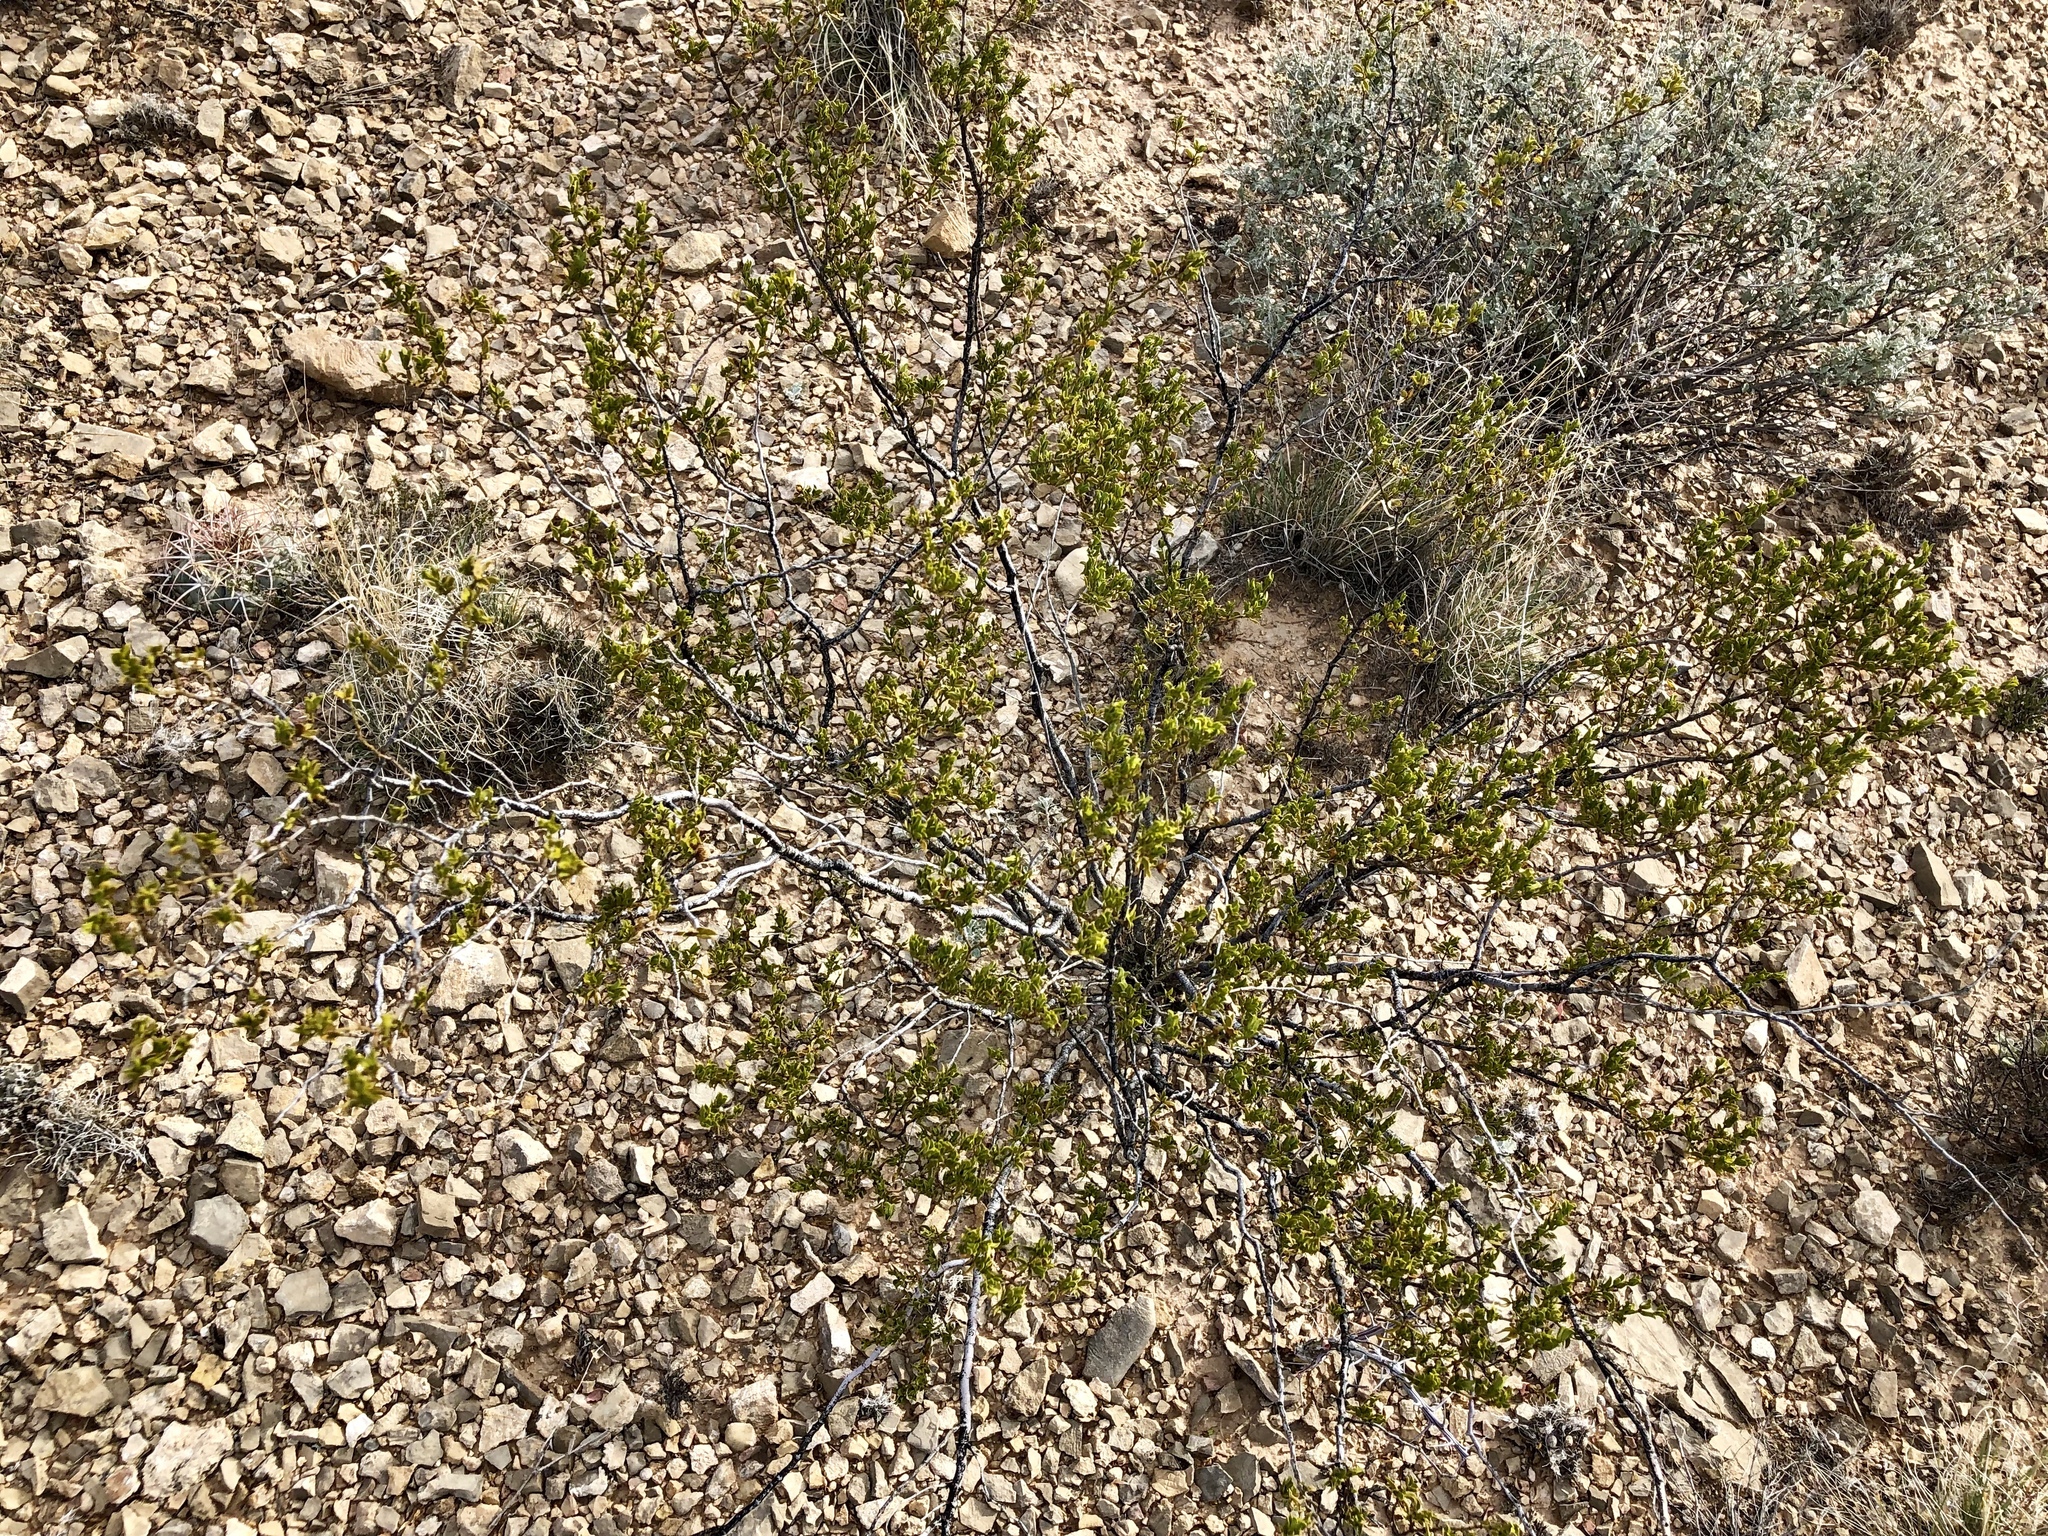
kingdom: Plantae
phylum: Tracheophyta
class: Magnoliopsida
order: Zygophyllales
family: Zygophyllaceae
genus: Larrea
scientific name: Larrea tridentata
